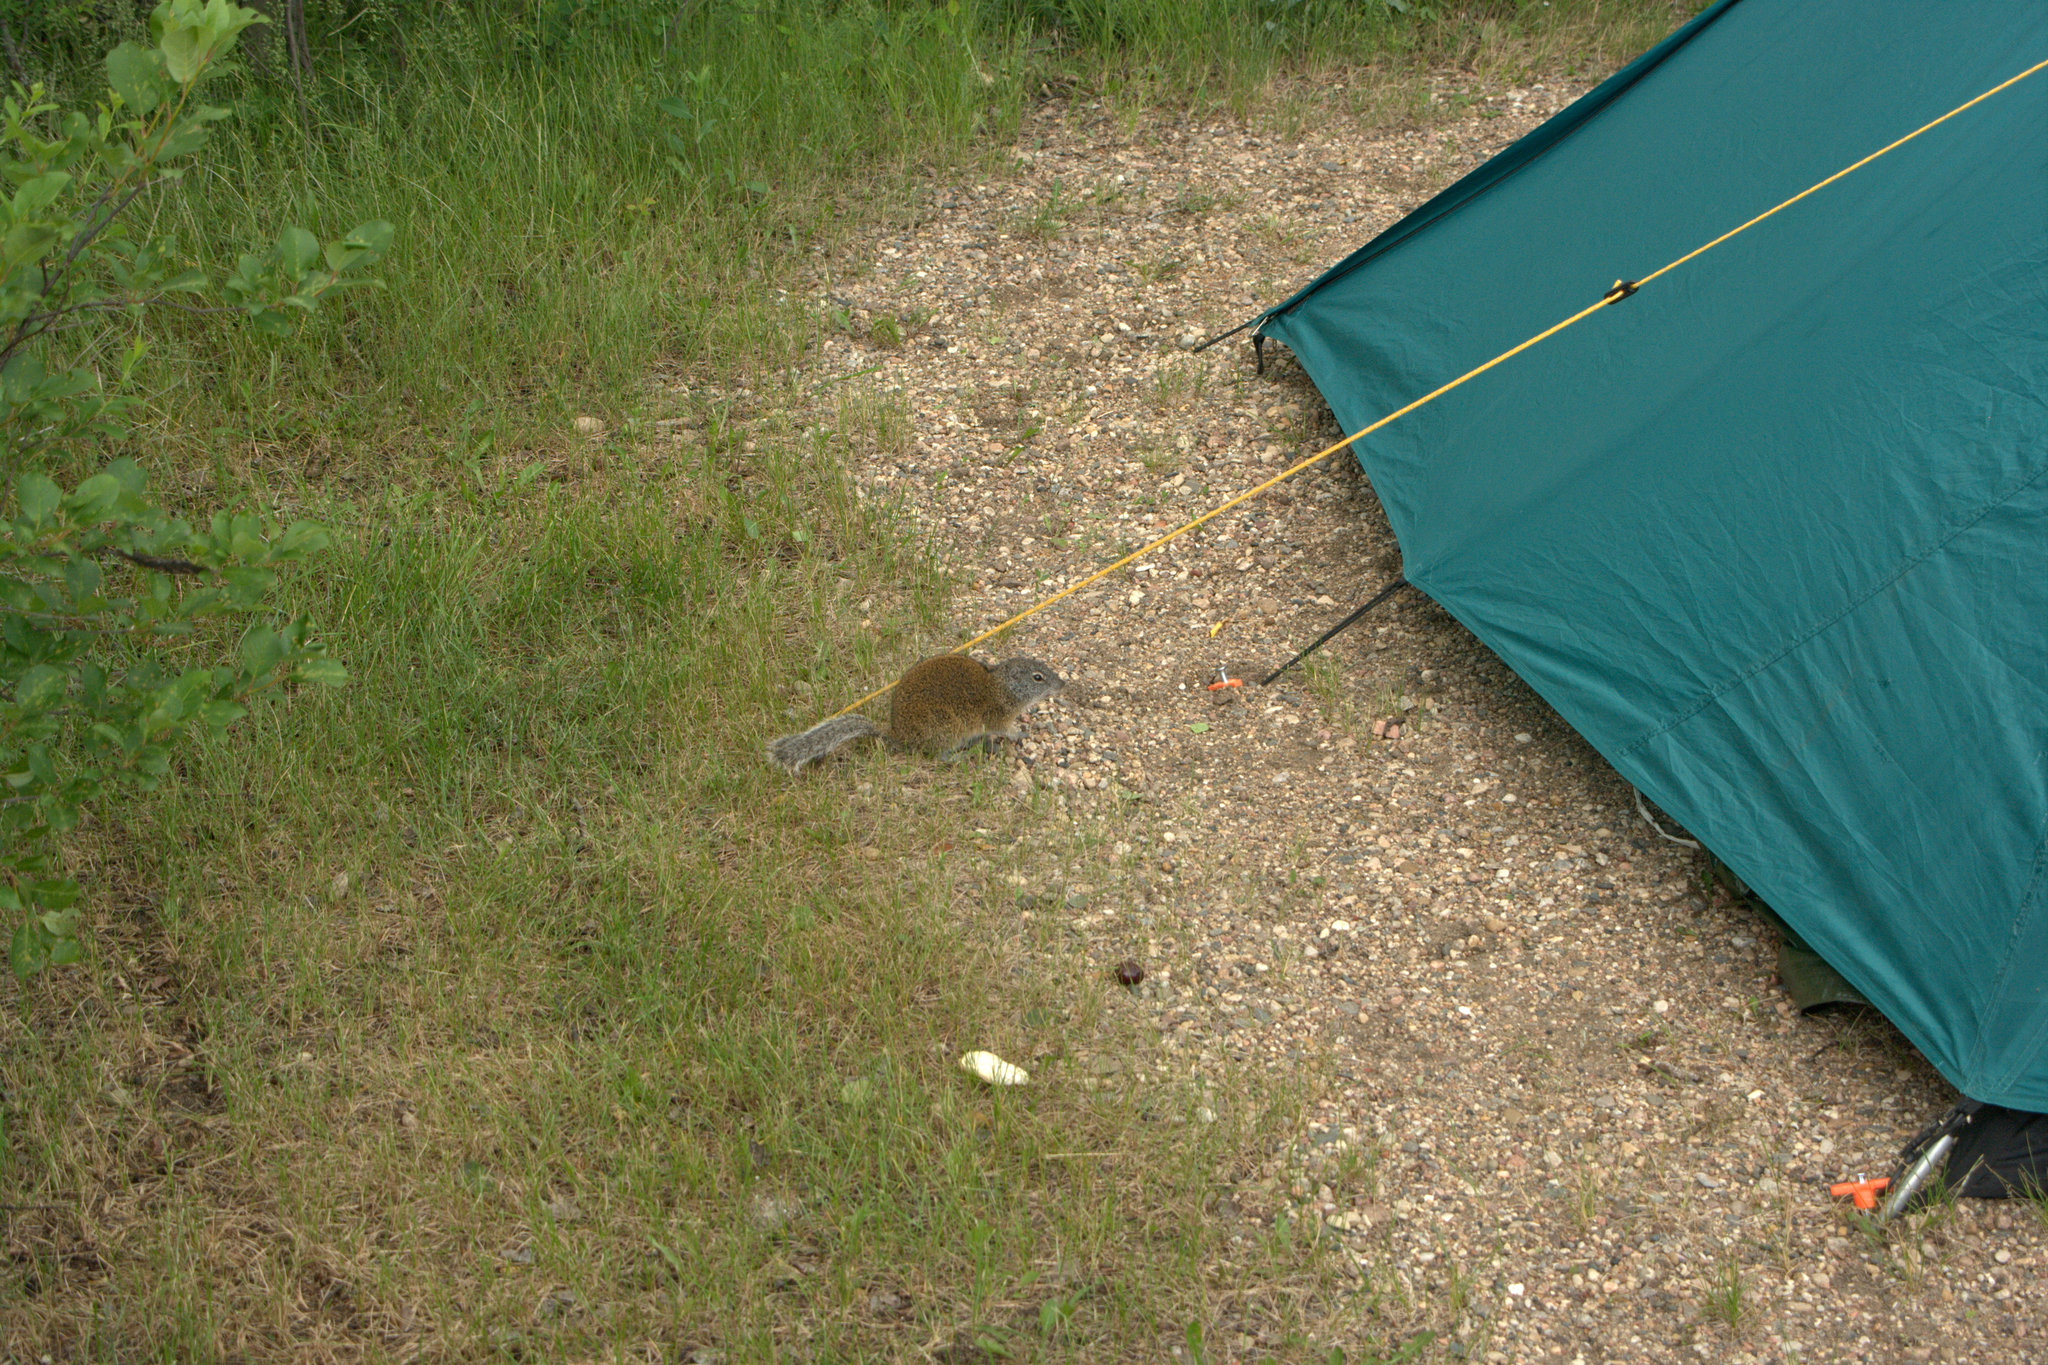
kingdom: Animalia
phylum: Chordata
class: Mammalia
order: Rodentia
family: Sciuridae
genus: Poliocitellus
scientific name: Poliocitellus franklinii
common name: Franklin's ground squirrel
